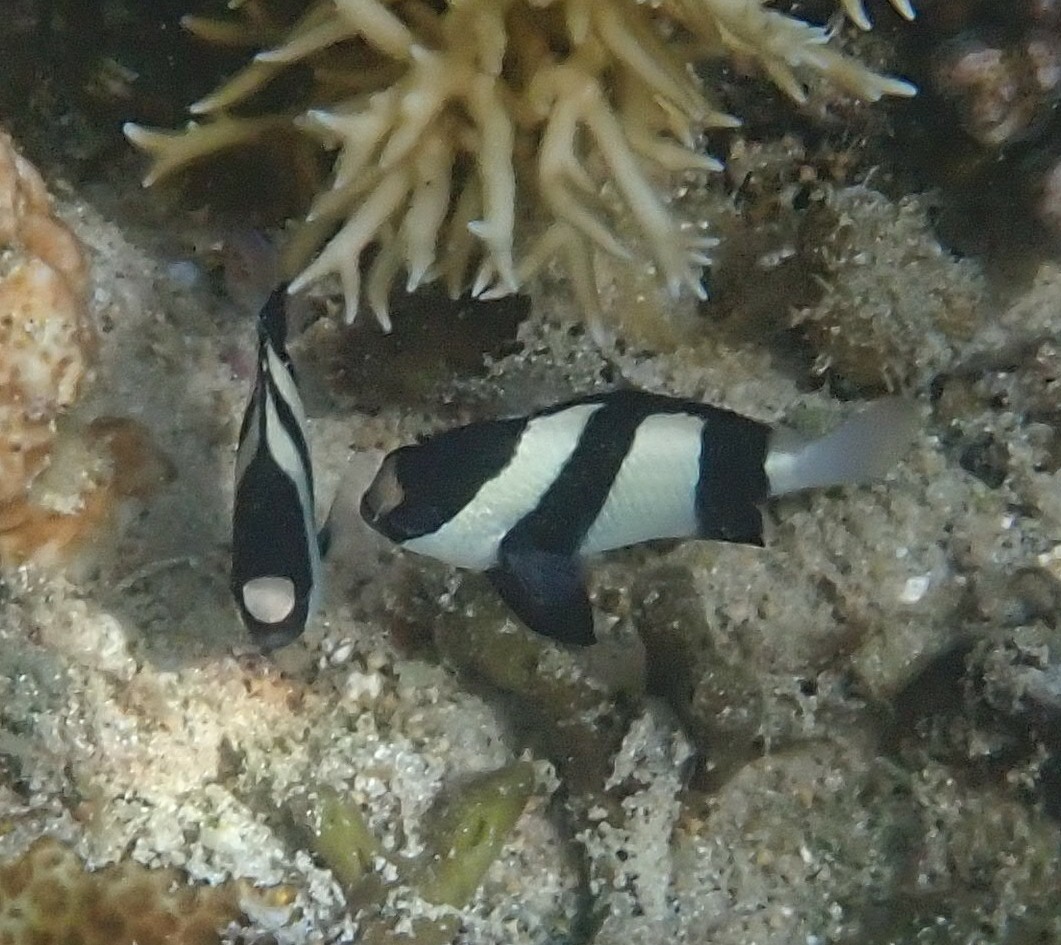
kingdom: Animalia
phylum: Chordata
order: Perciformes
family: Pomacentridae
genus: Dascyllus
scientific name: Dascyllus aruanus
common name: Humbug dascyllus
